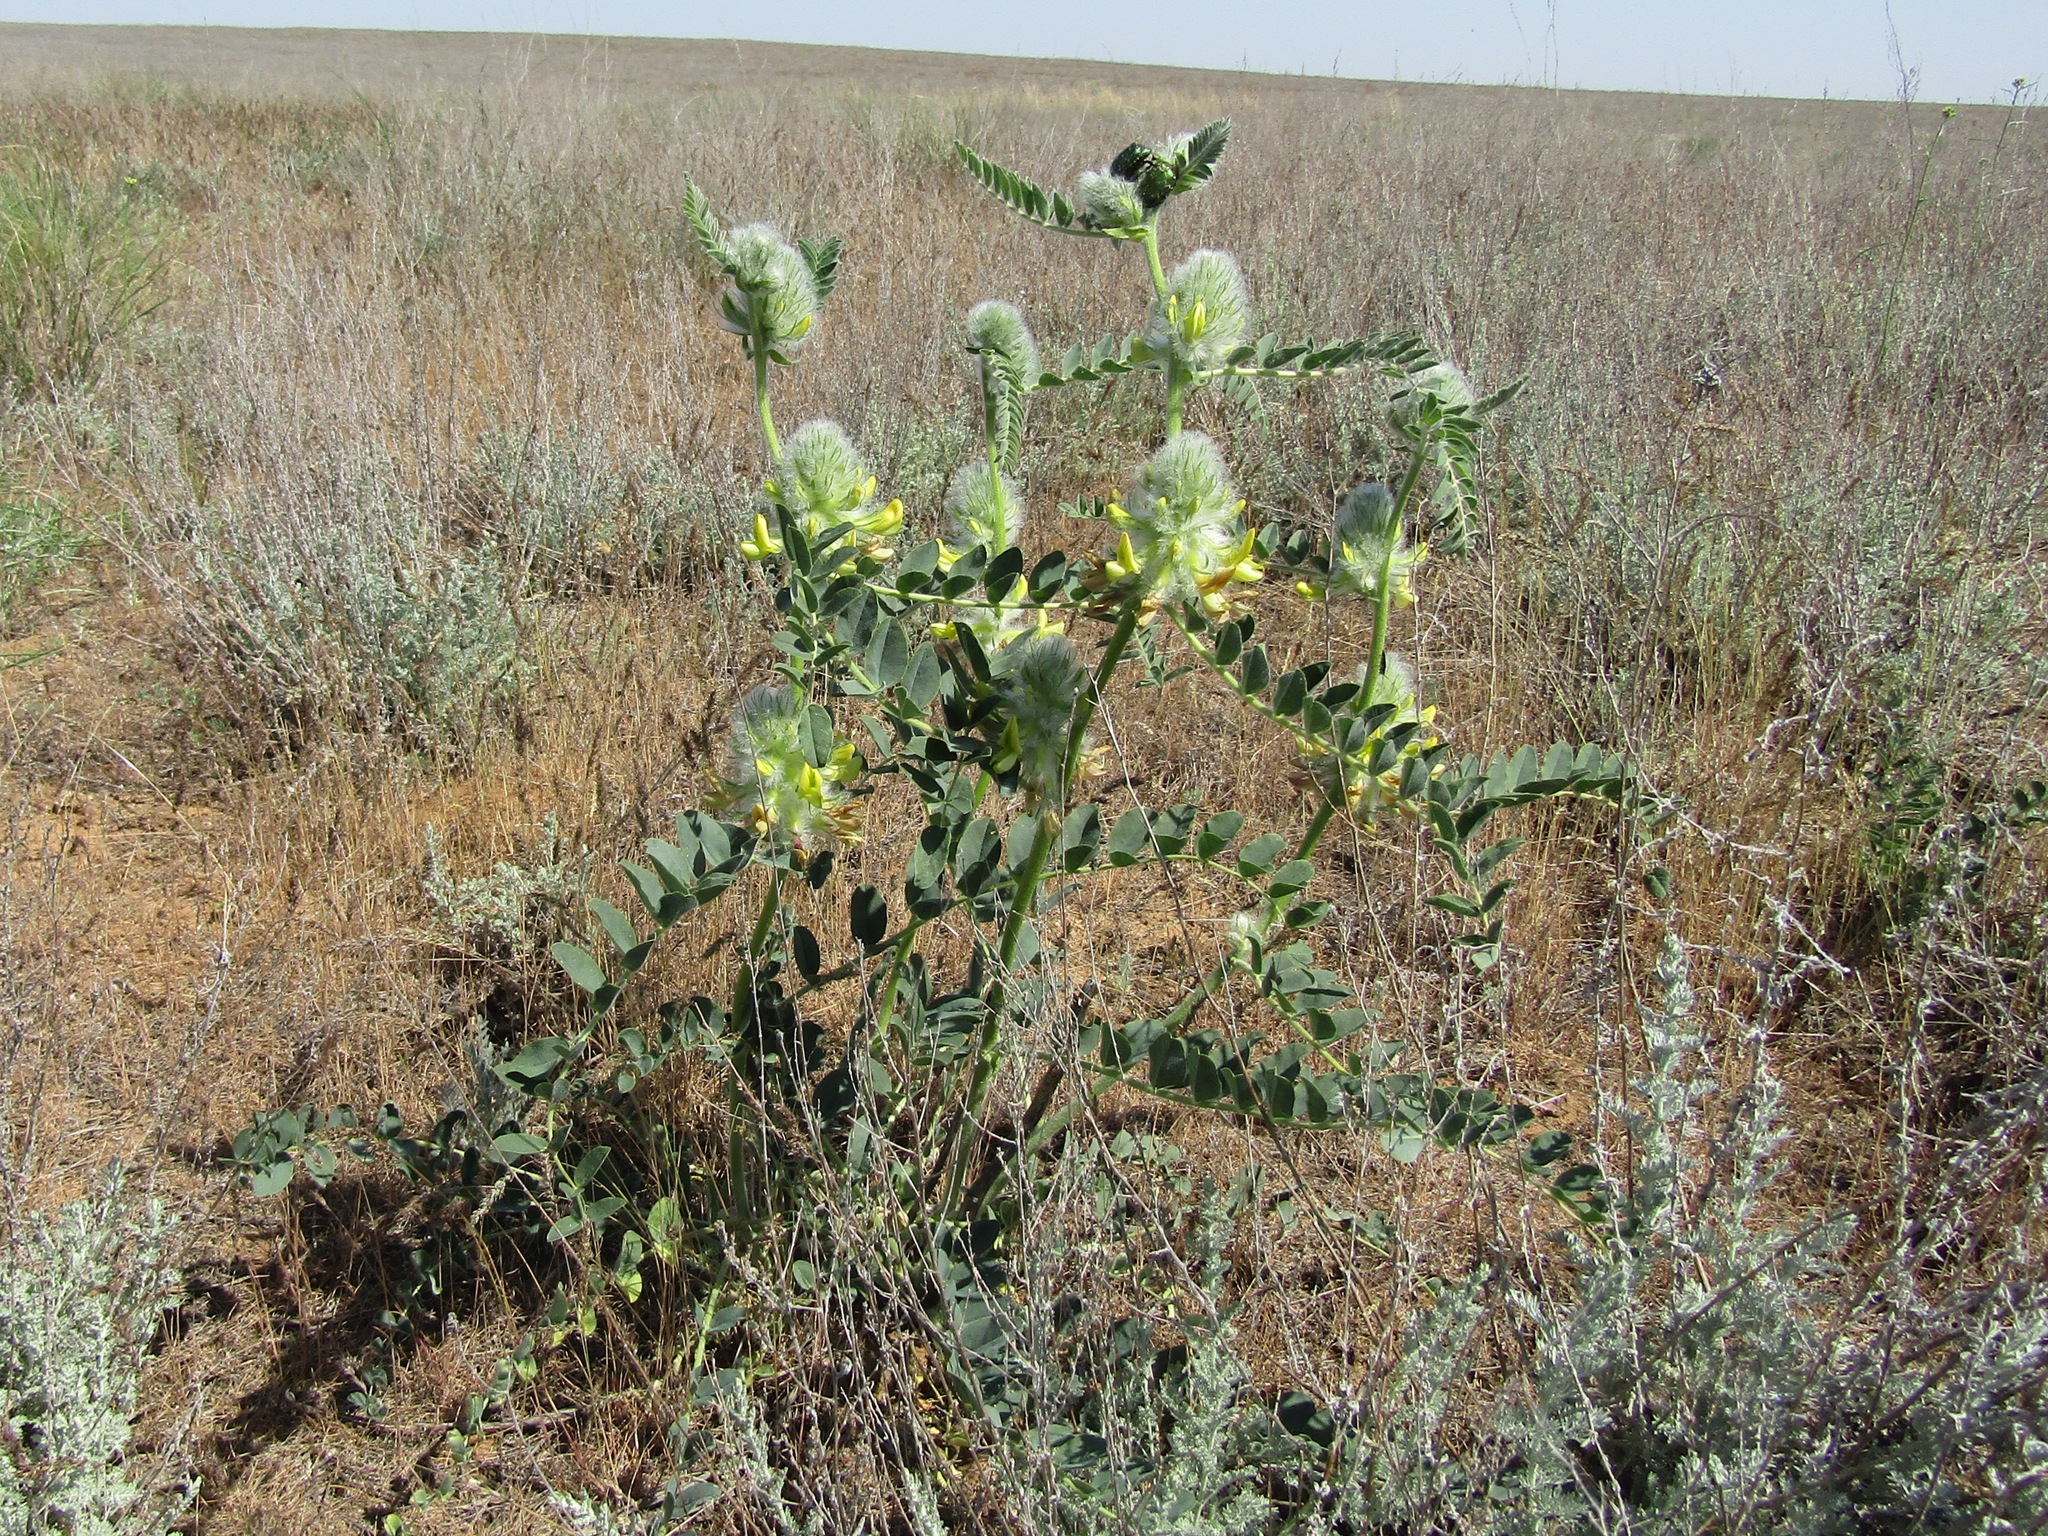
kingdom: Plantae
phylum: Tracheophyta
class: Magnoliopsida
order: Fabales
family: Fabaceae
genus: Astragalus
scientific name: Astragalus vulpinus
